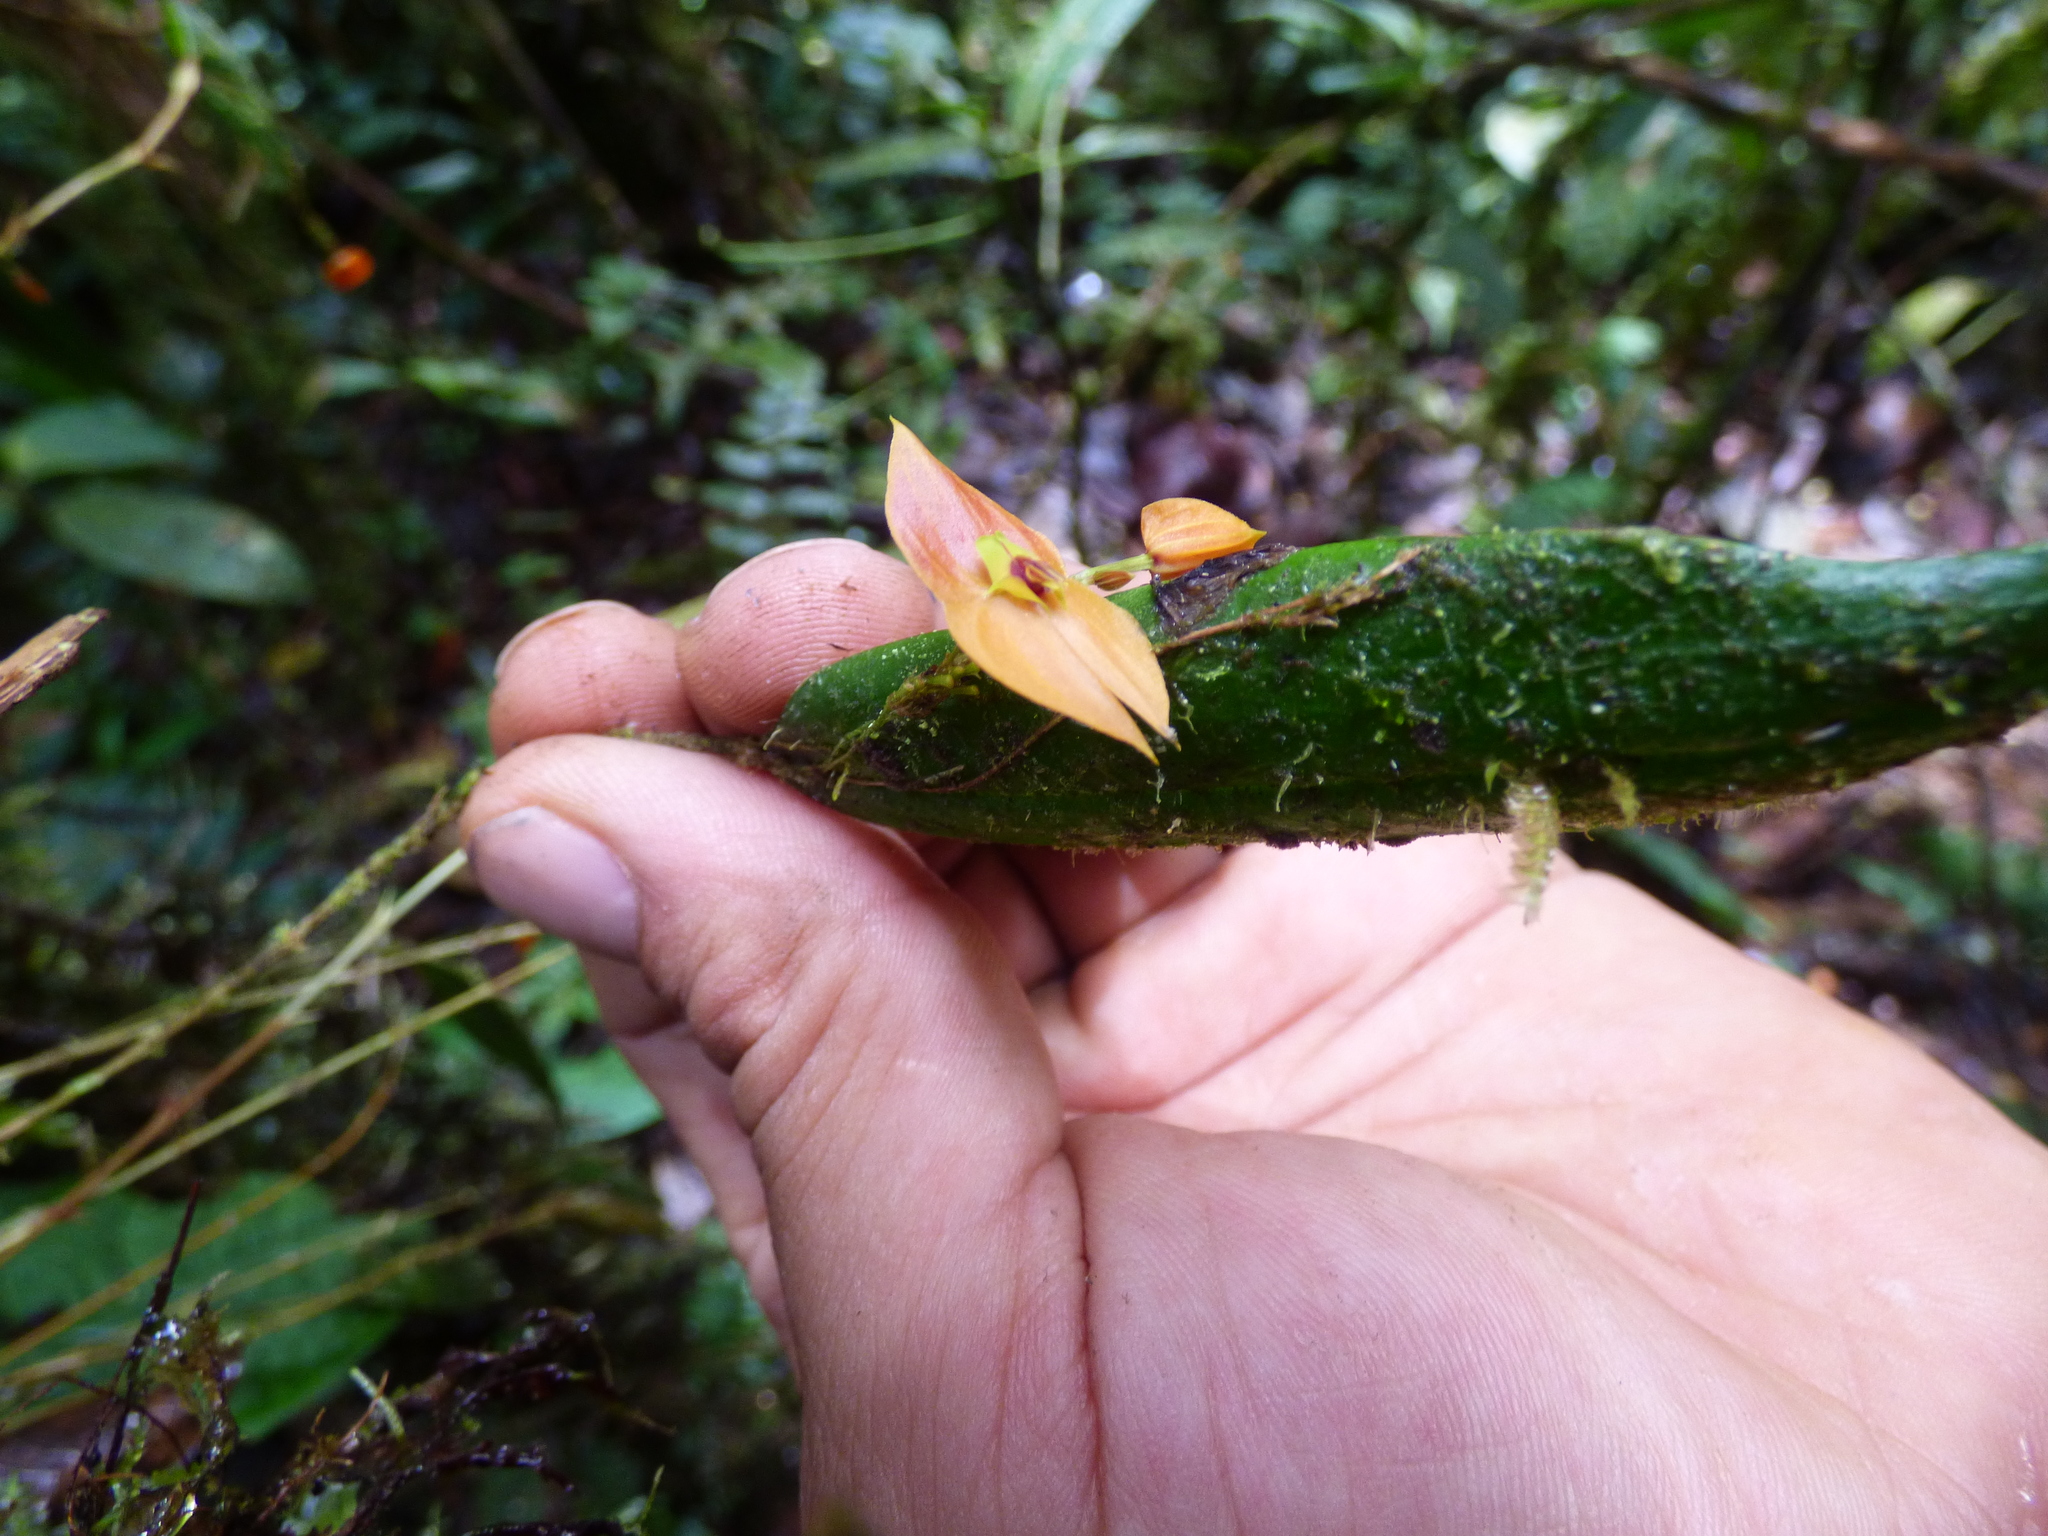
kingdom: Plantae
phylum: Tracheophyta
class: Liliopsida
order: Asparagales
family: Orchidaceae
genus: Lepanthes
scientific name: Lepanthes ophelma
